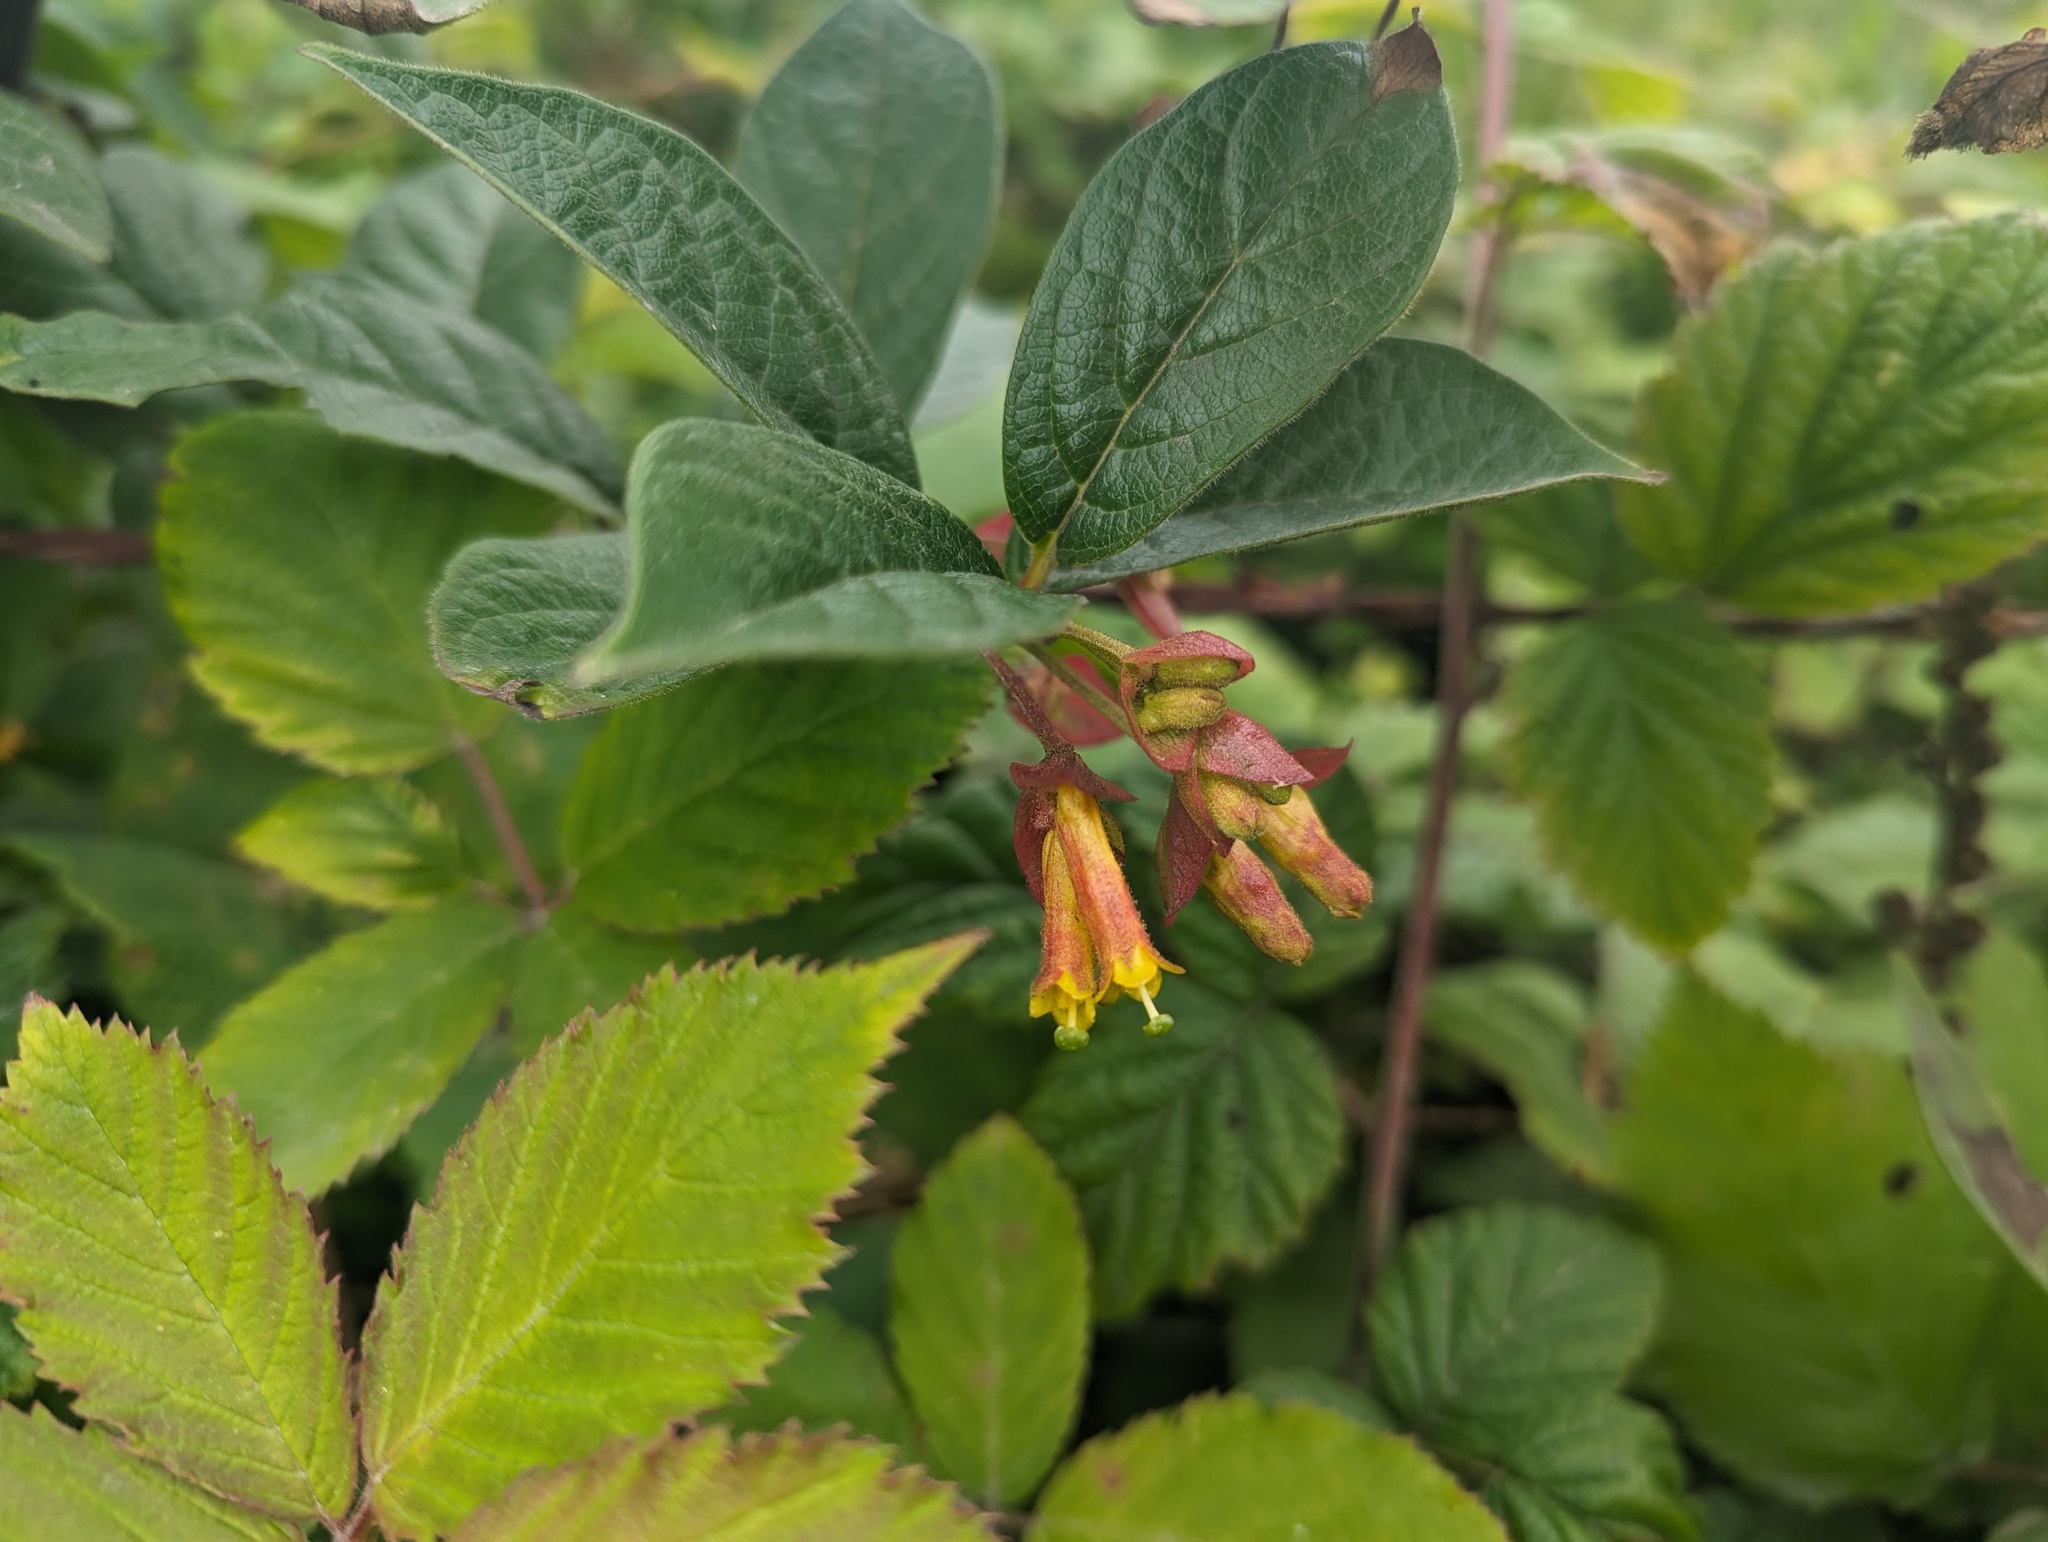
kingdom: Plantae
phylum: Tracheophyta
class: Magnoliopsida
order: Dipsacales
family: Caprifoliaceae
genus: Lonicera
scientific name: Lonicera involucrata
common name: Californian honeysuckle
